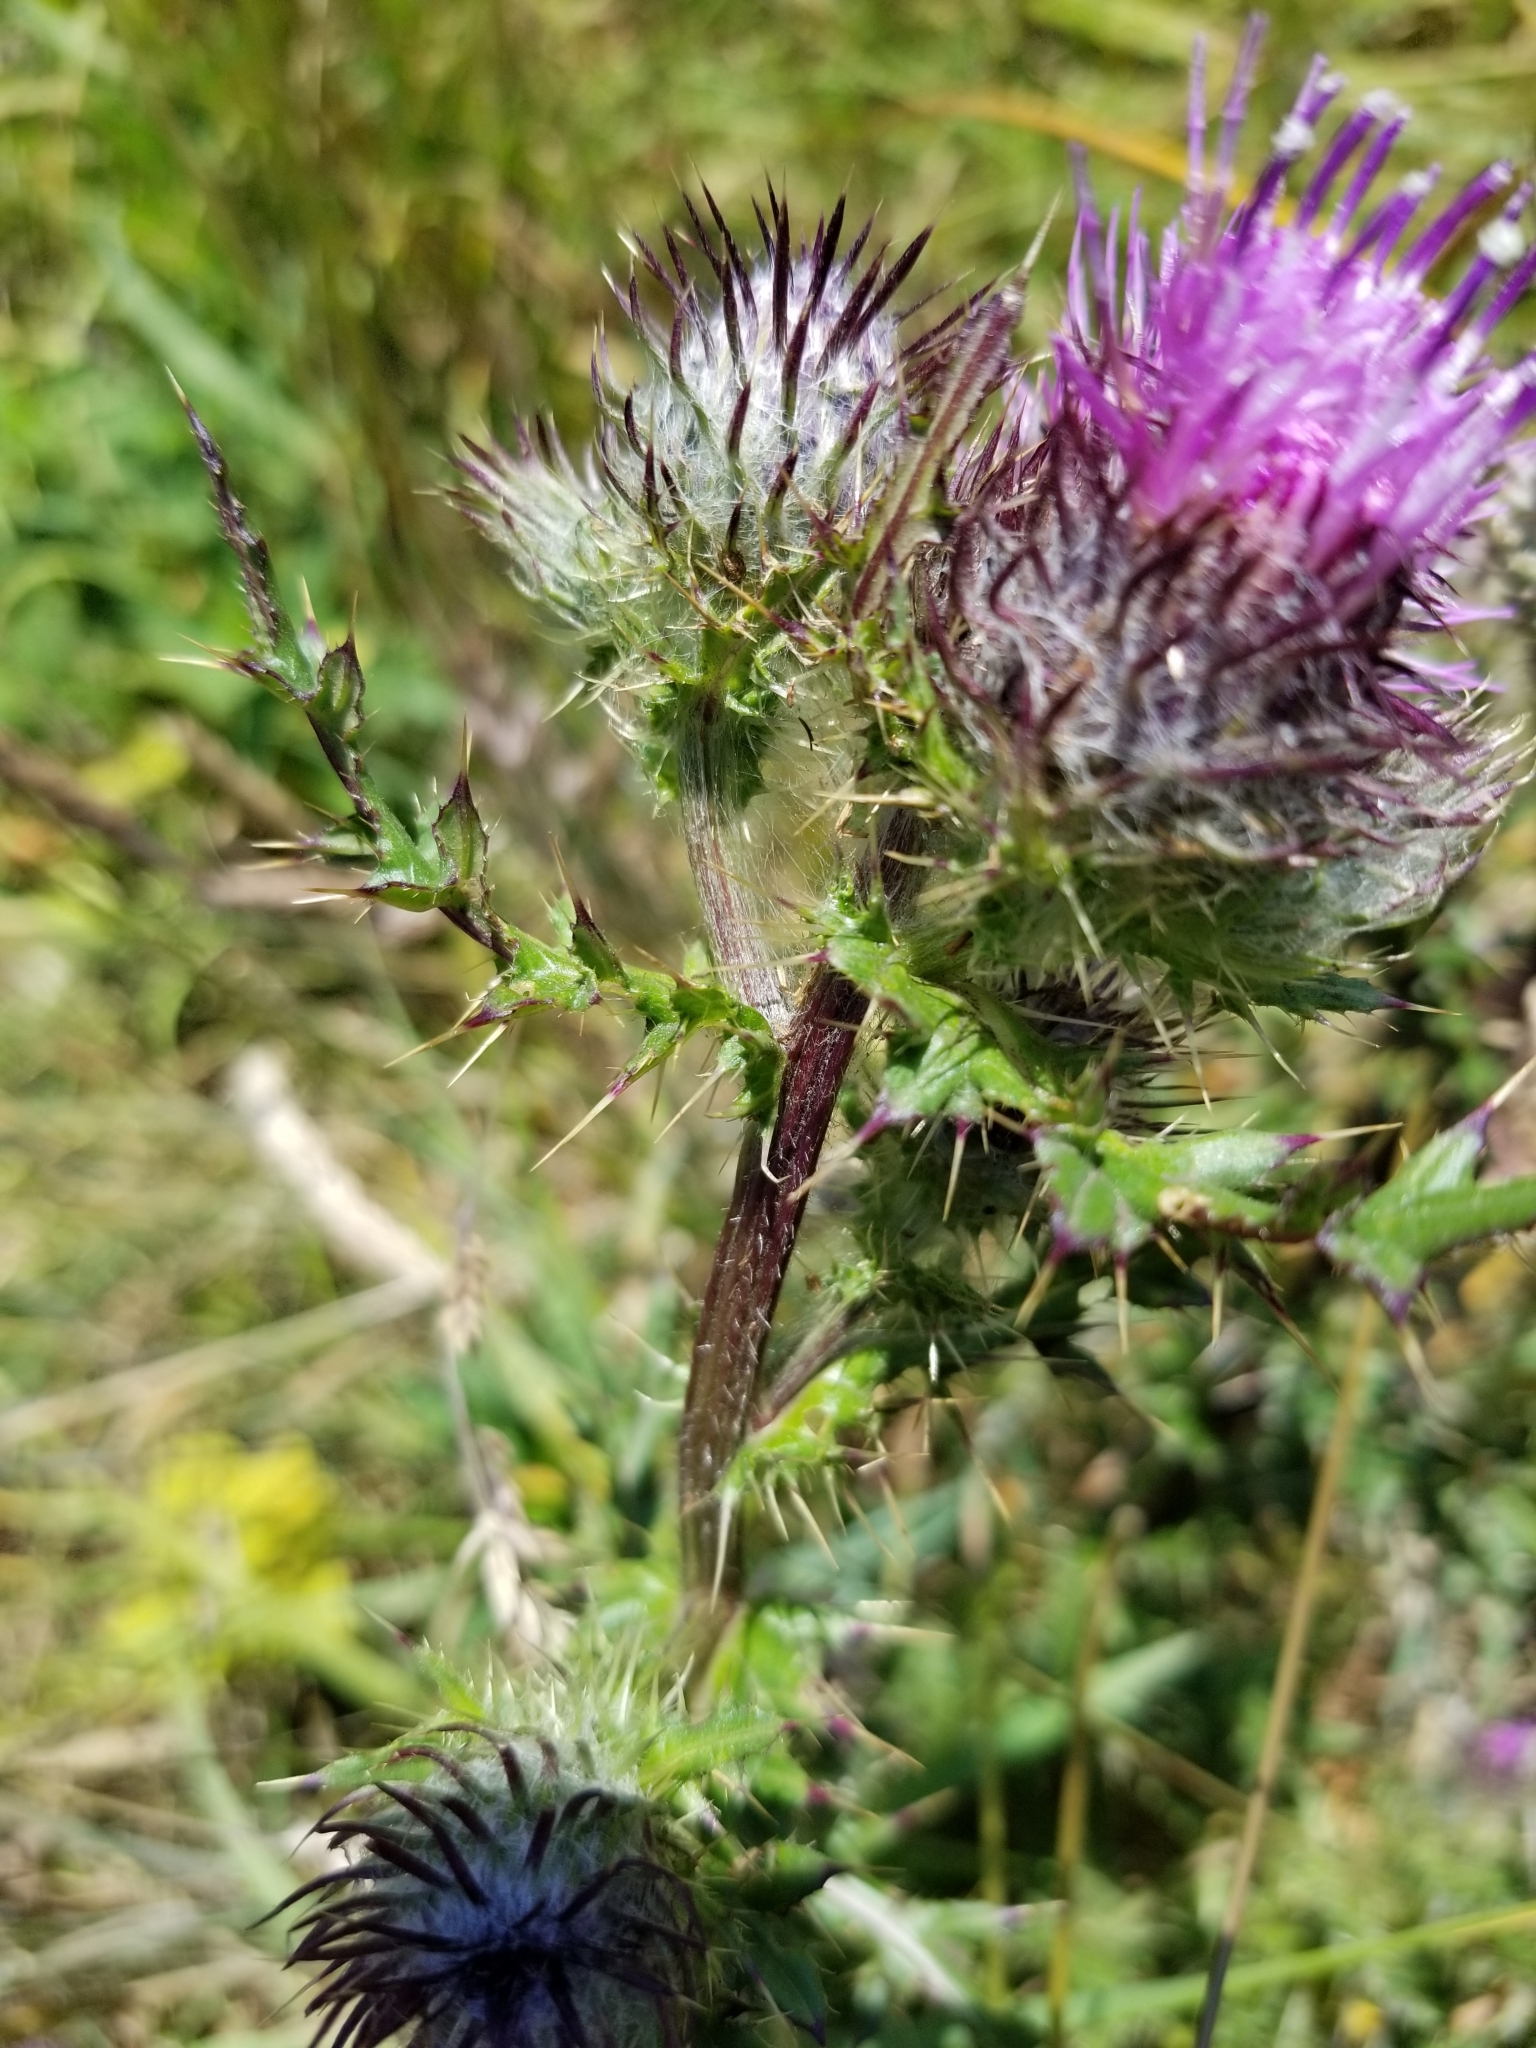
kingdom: Plantae
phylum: Tracheophyta
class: Magnoliopsida
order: Asterales
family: Asteraceae
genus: Cirsium
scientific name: Cirsium edule
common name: Indian thistle
